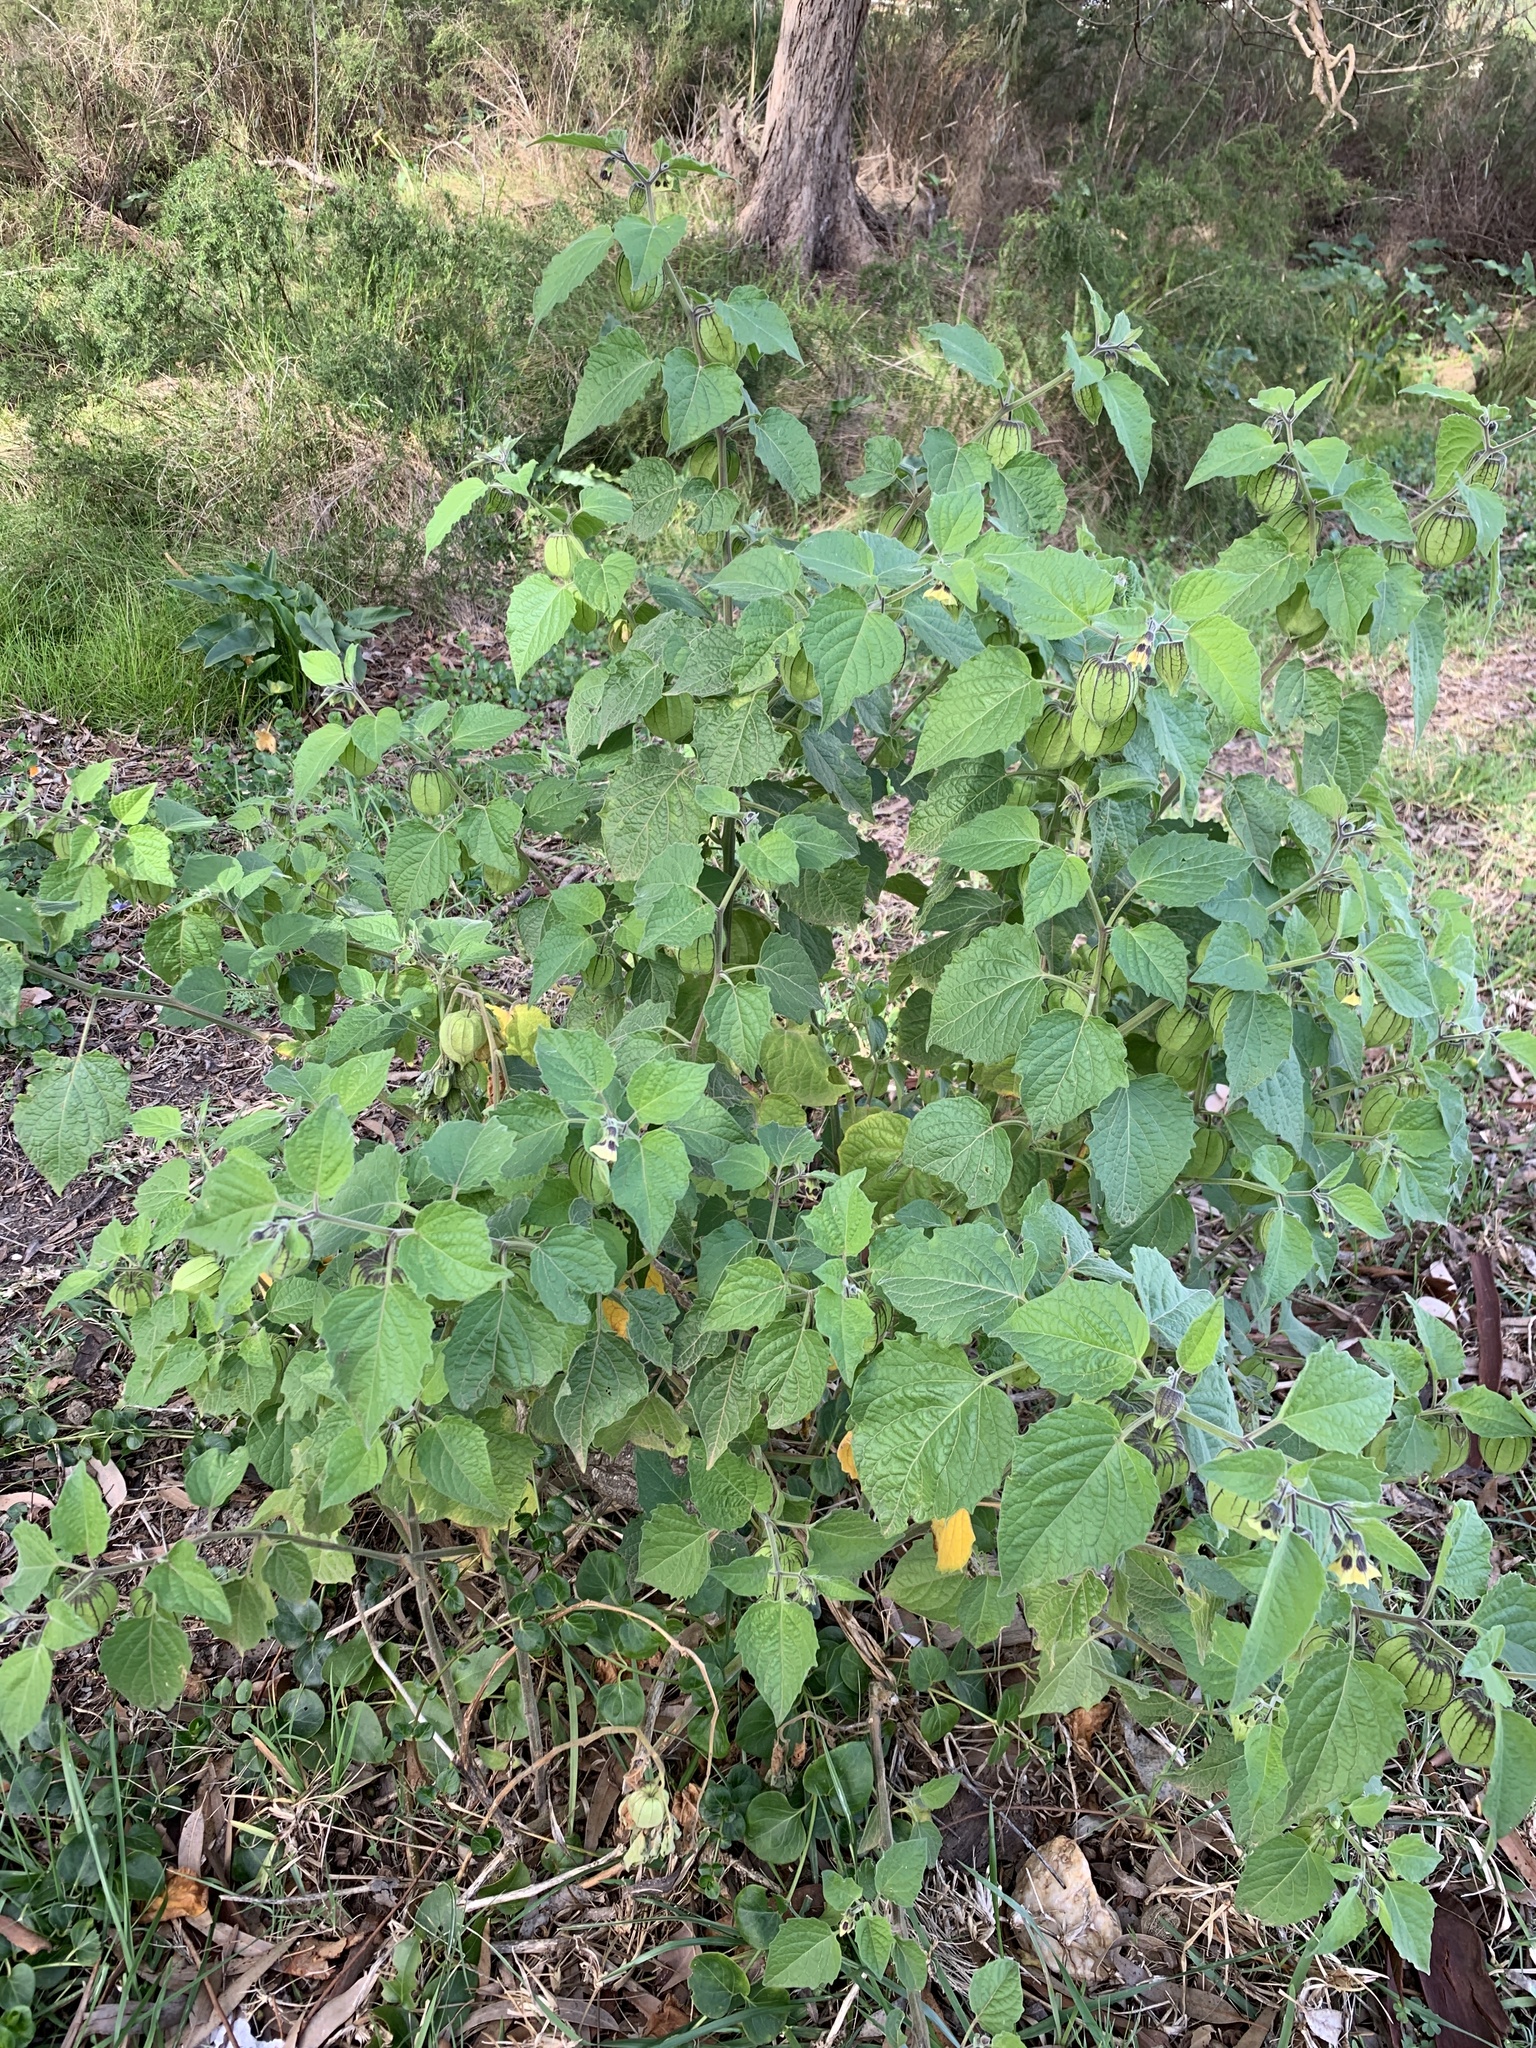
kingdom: Plantae
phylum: Tracheophyta
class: Magnoliopsida
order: Solanales
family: Solanaceae
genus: Physalis
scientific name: Physalis peruviana
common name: Cape-gooseberry
